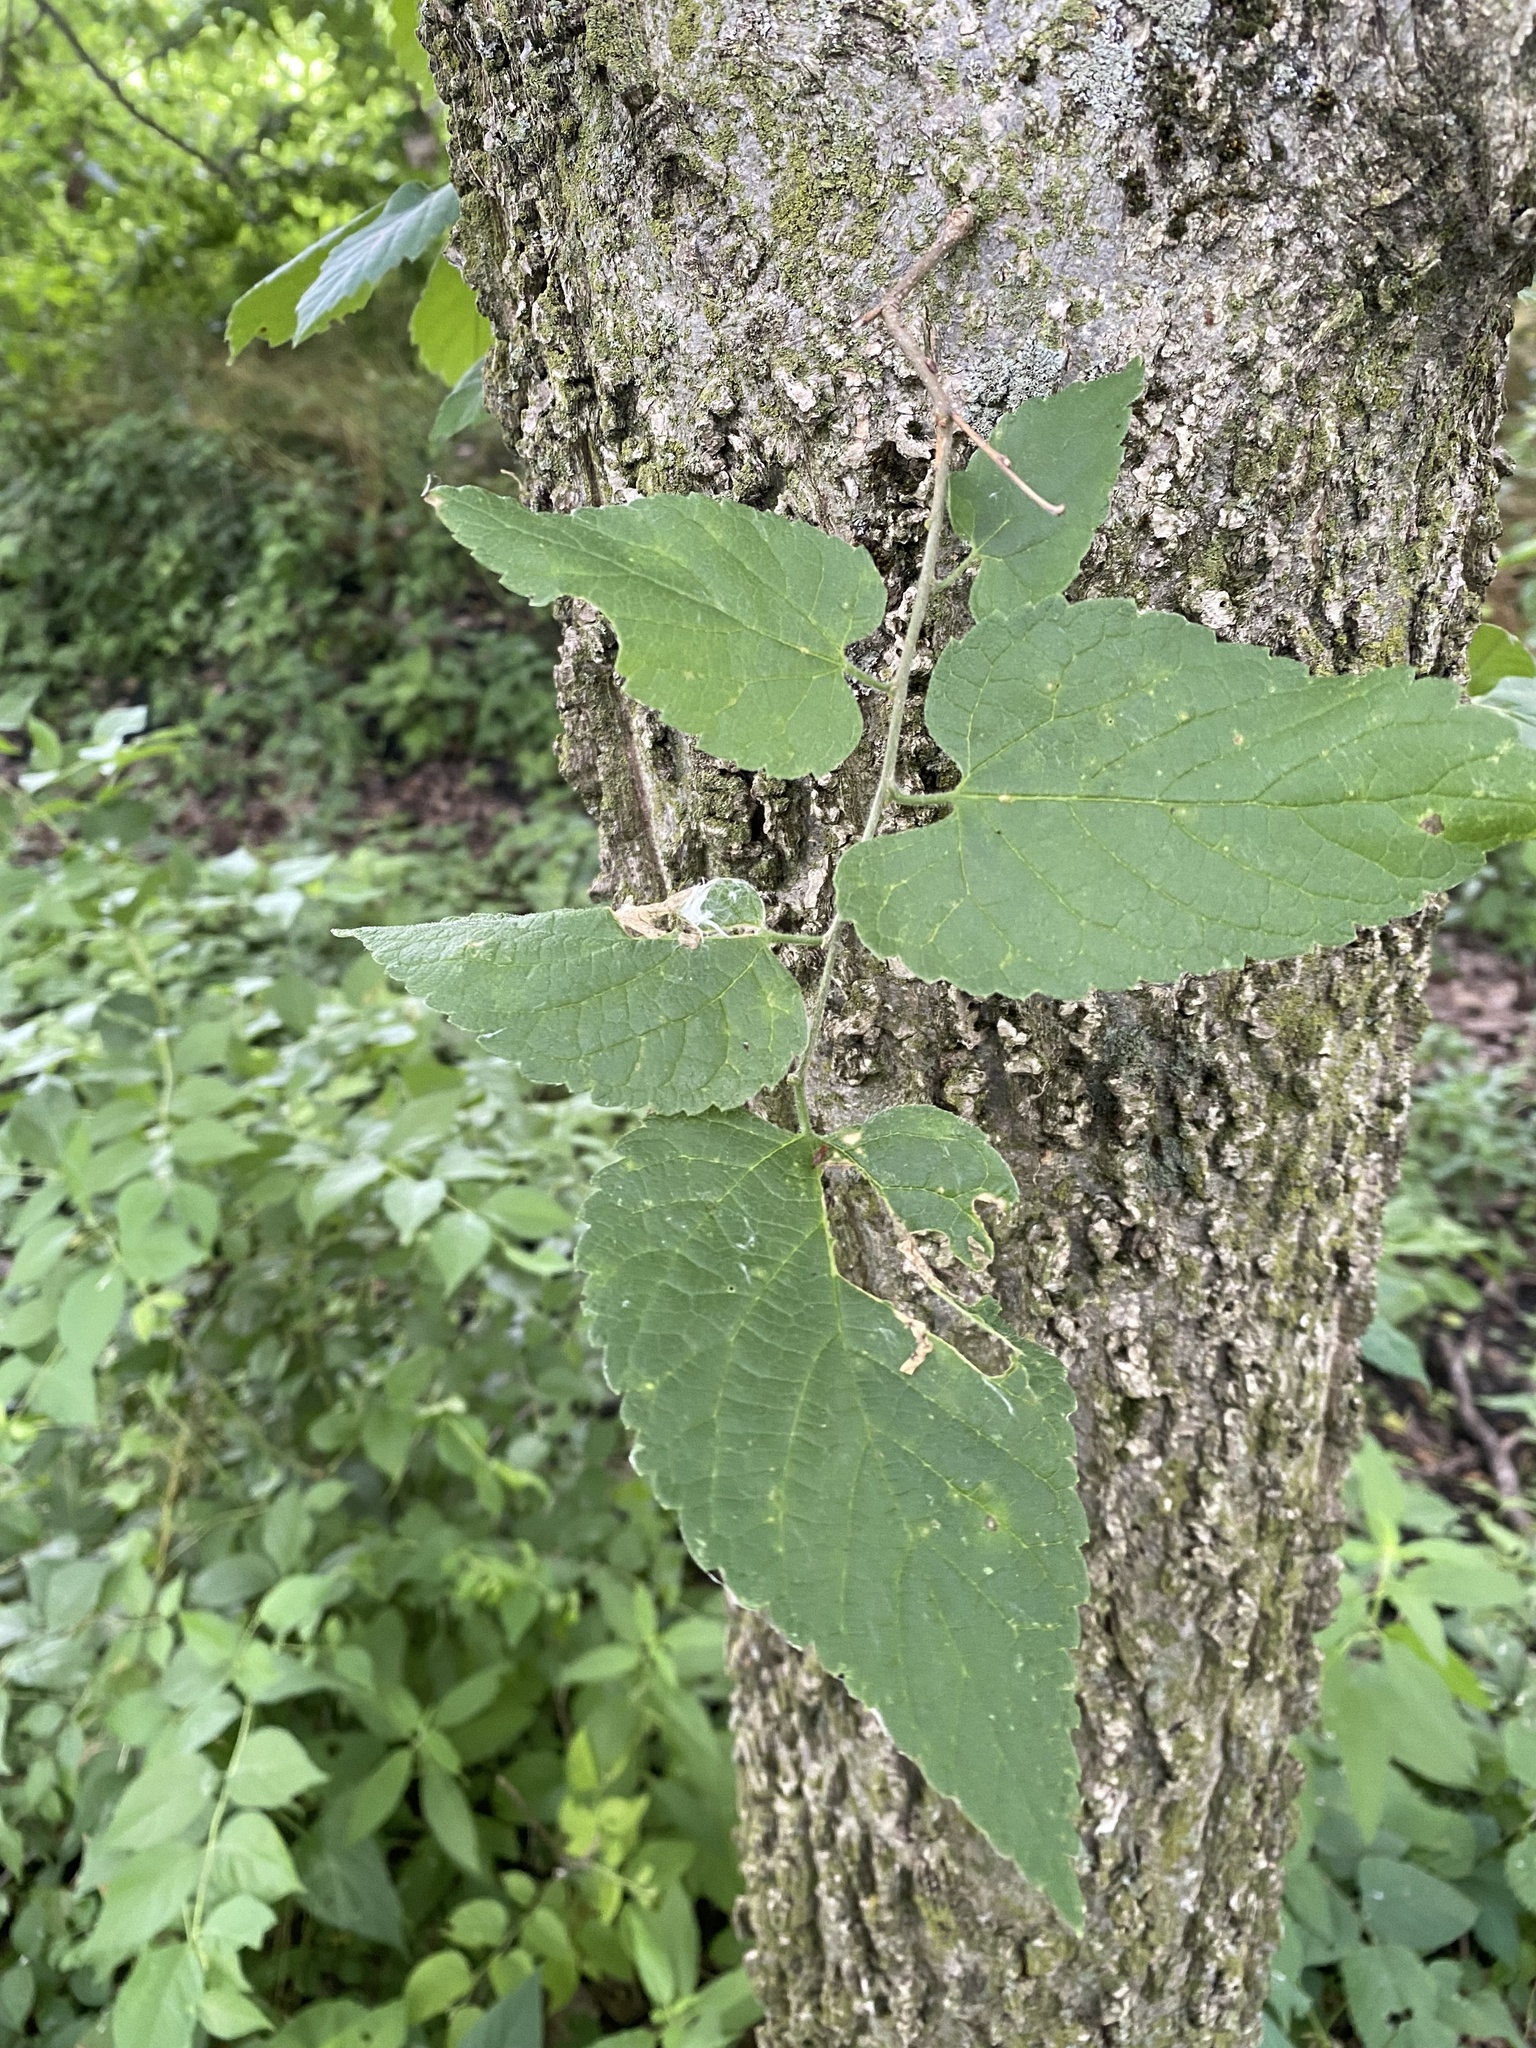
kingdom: Plantae
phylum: Tracheophyta
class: Magnoliopsida
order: Rosales
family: Cannabaceae
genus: Celtis
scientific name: Celtis occidentalis
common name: Common hackberry
